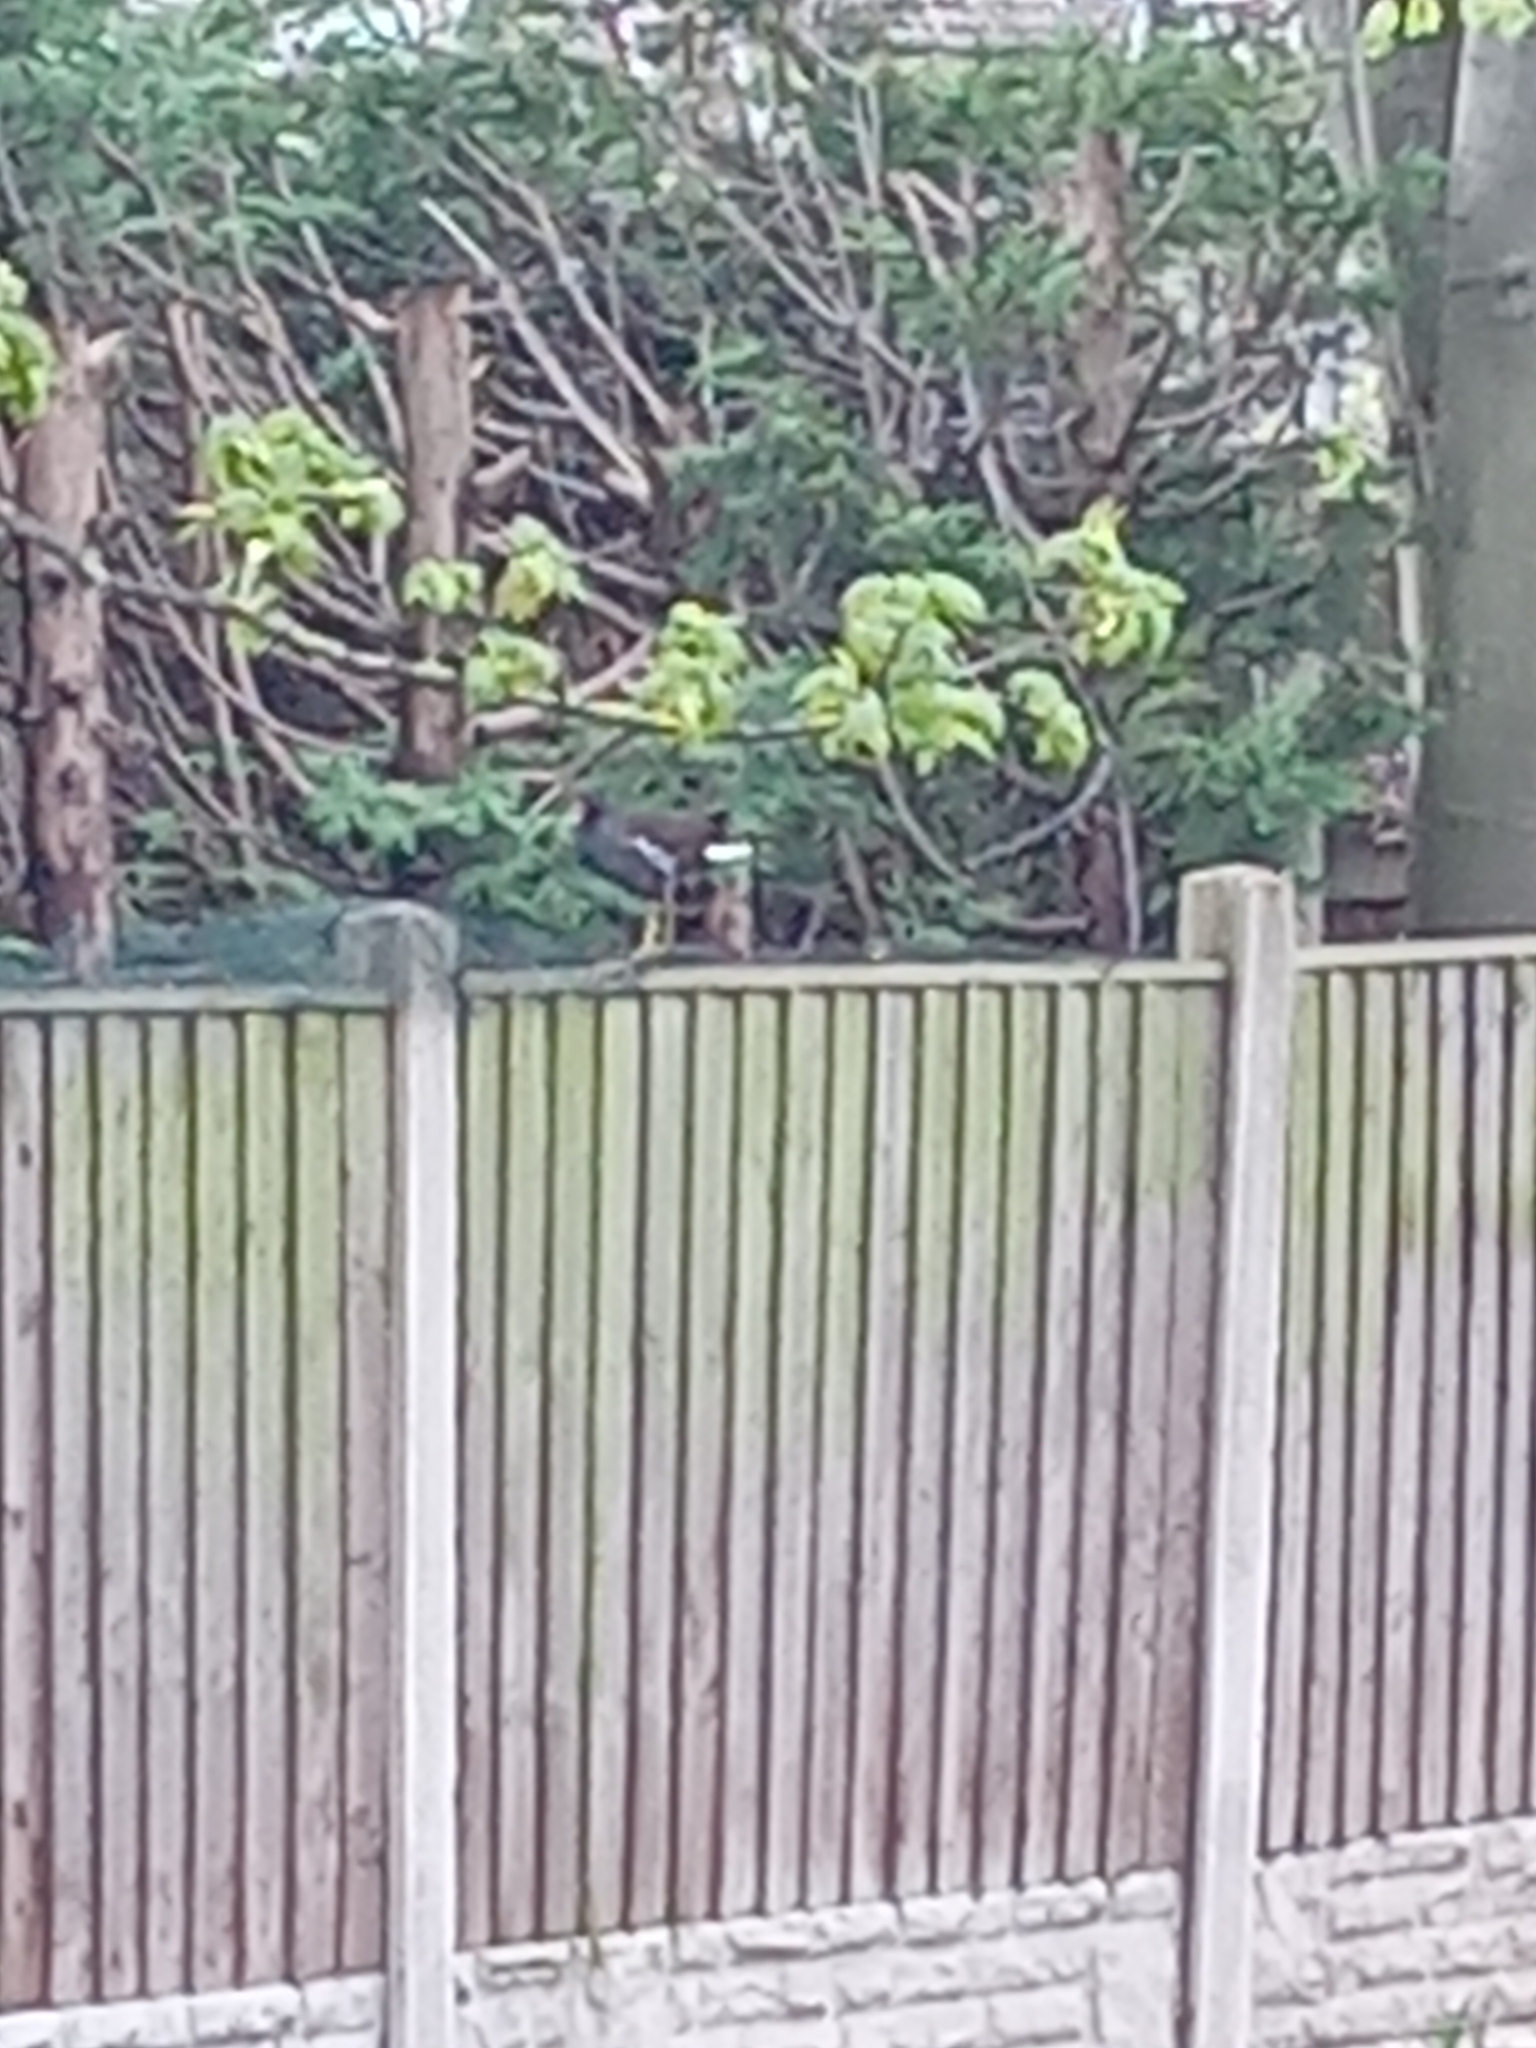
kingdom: Animalia
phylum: Chordata
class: Aves
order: Gruiformes
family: Rallidae
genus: Gallinula
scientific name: Gallinula chloropus
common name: Common moorhen
